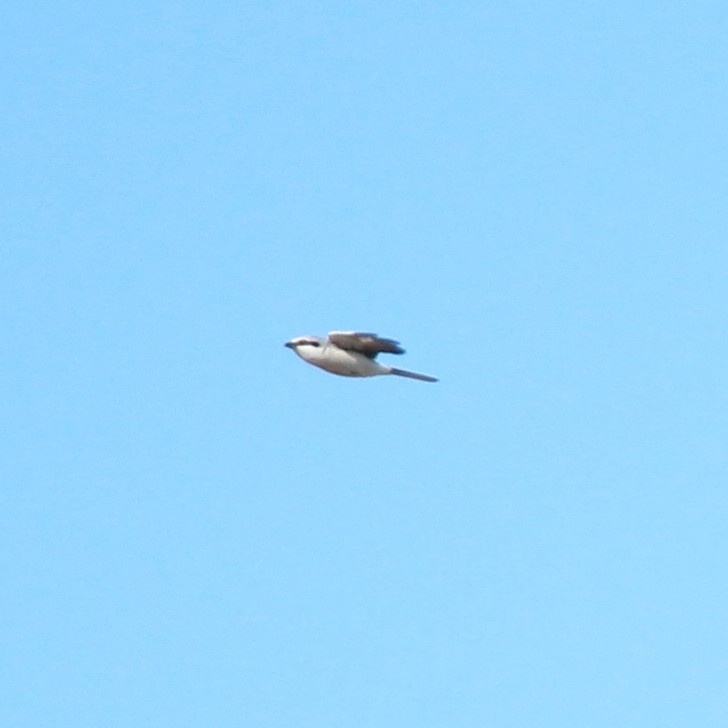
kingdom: Animalia
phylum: Chordata
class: Aves
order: Passeriformes
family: Laniidae
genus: Lanius
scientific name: Lanius excubitor
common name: Great grey shrike
